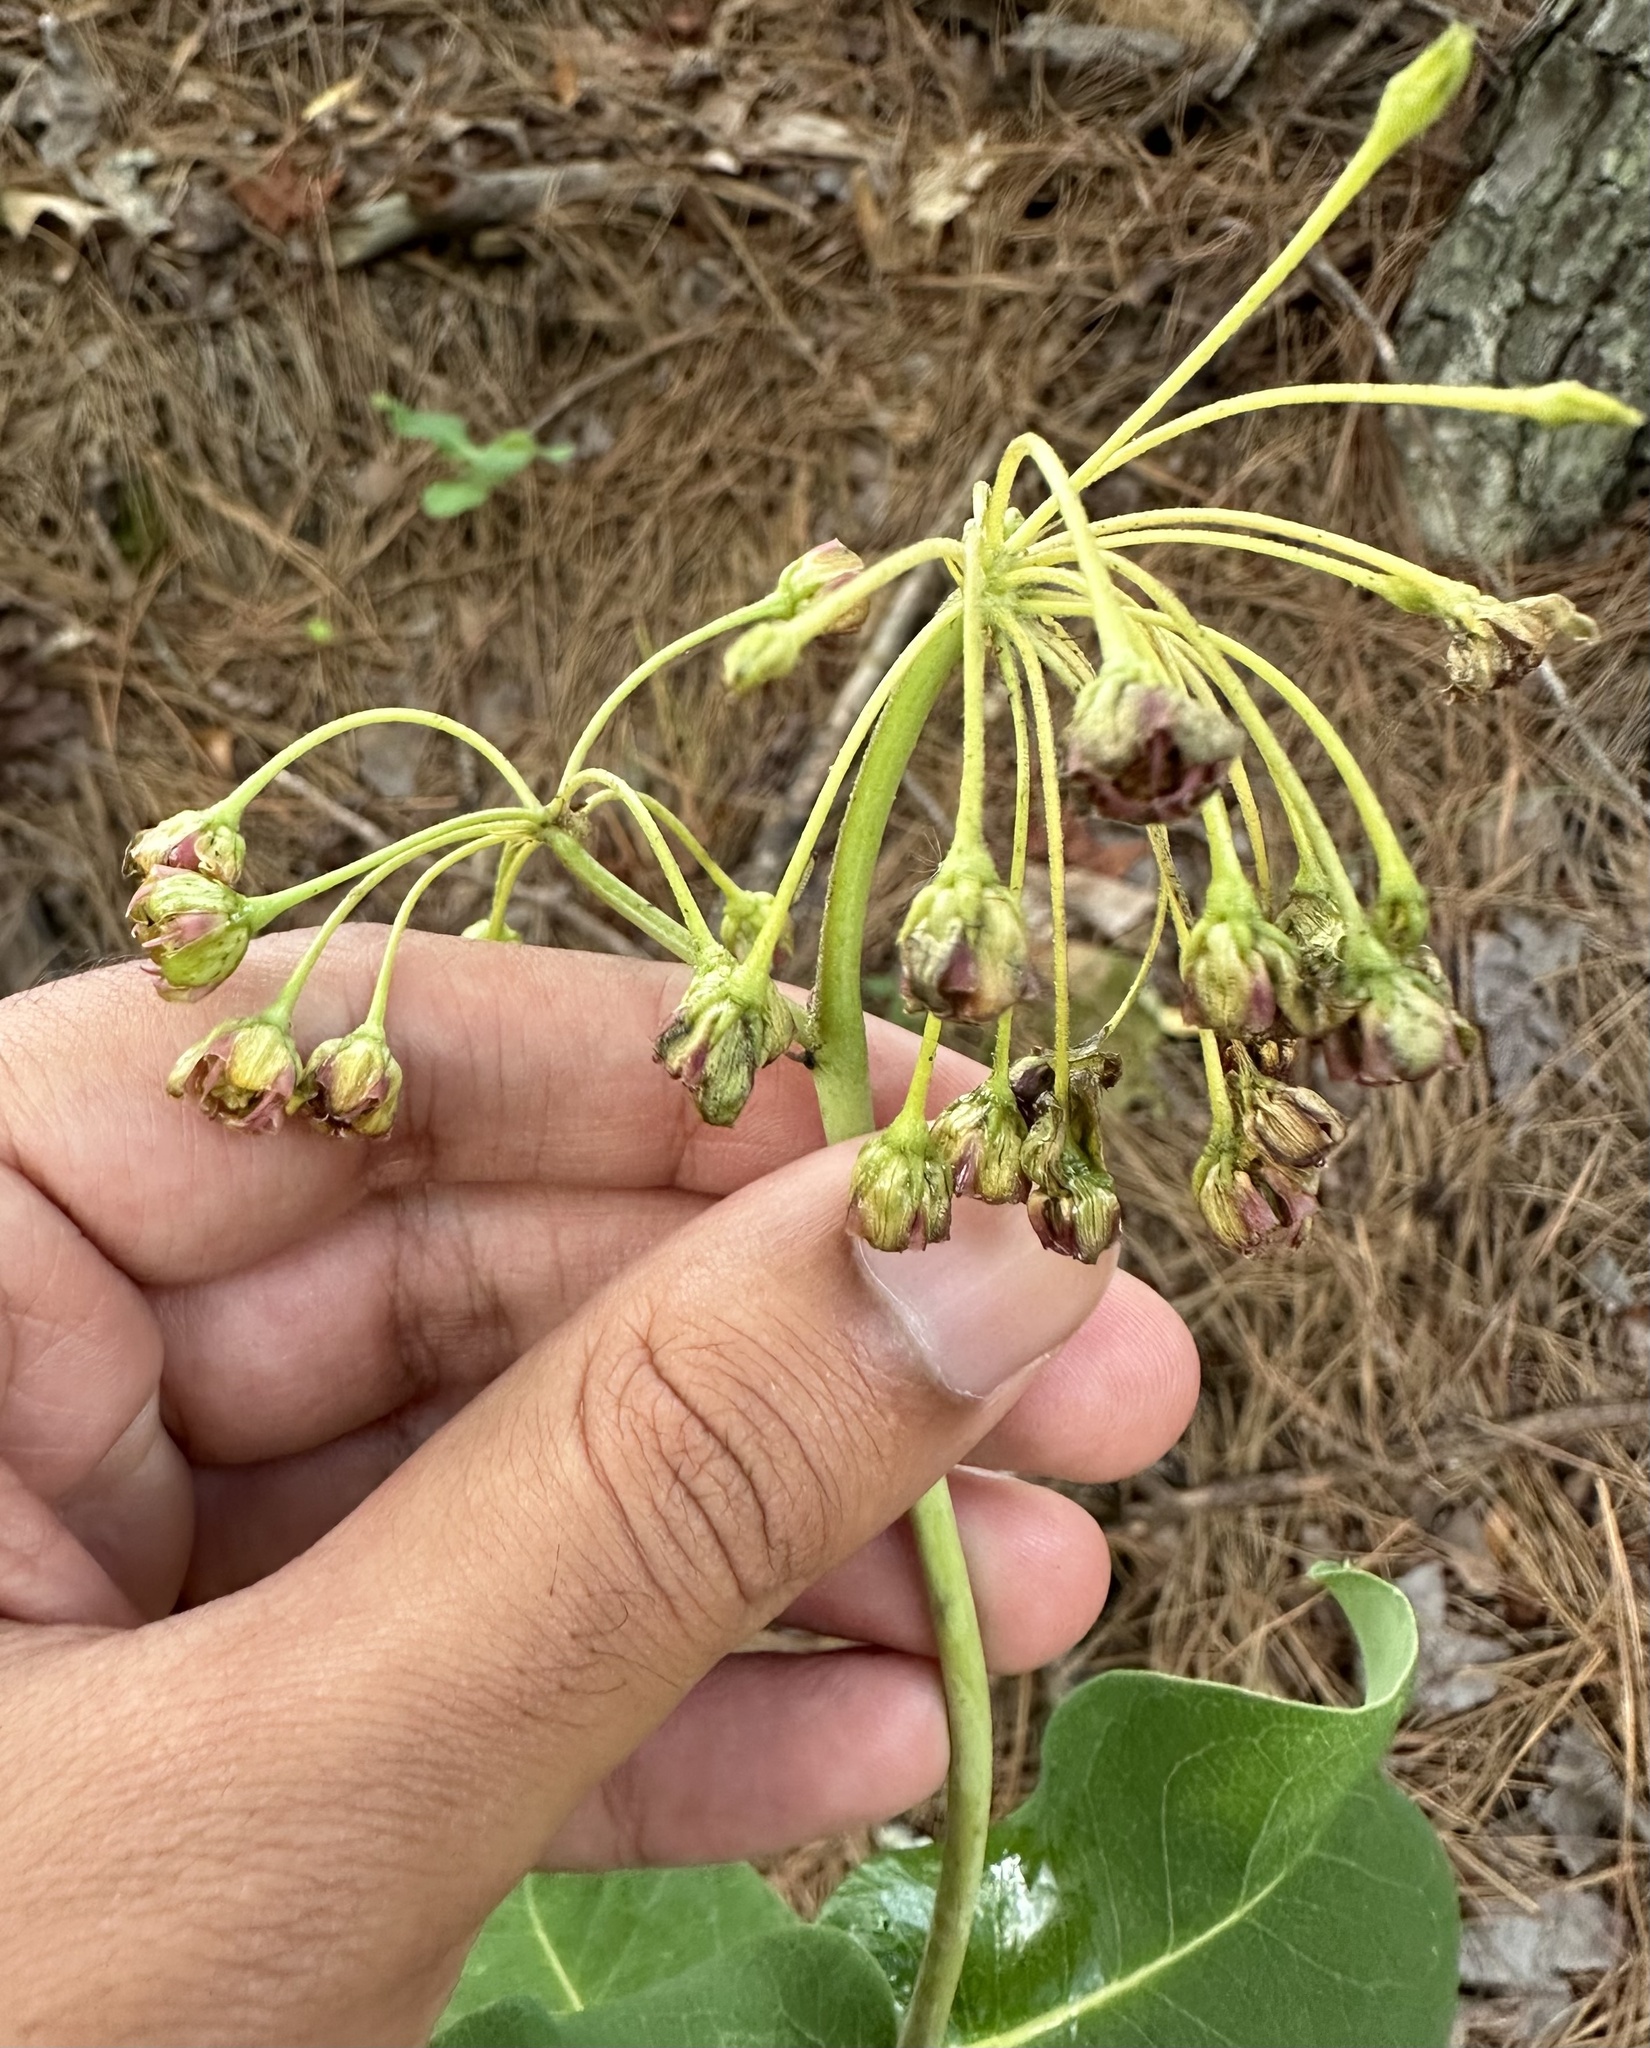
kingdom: Plantae
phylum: Tracheophyta
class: Magnoliopsida
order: Gentianales
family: Apocynaceae
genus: Asclepias
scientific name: Asclepias amplexicaulis
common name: Blunt-leaf milkweed
